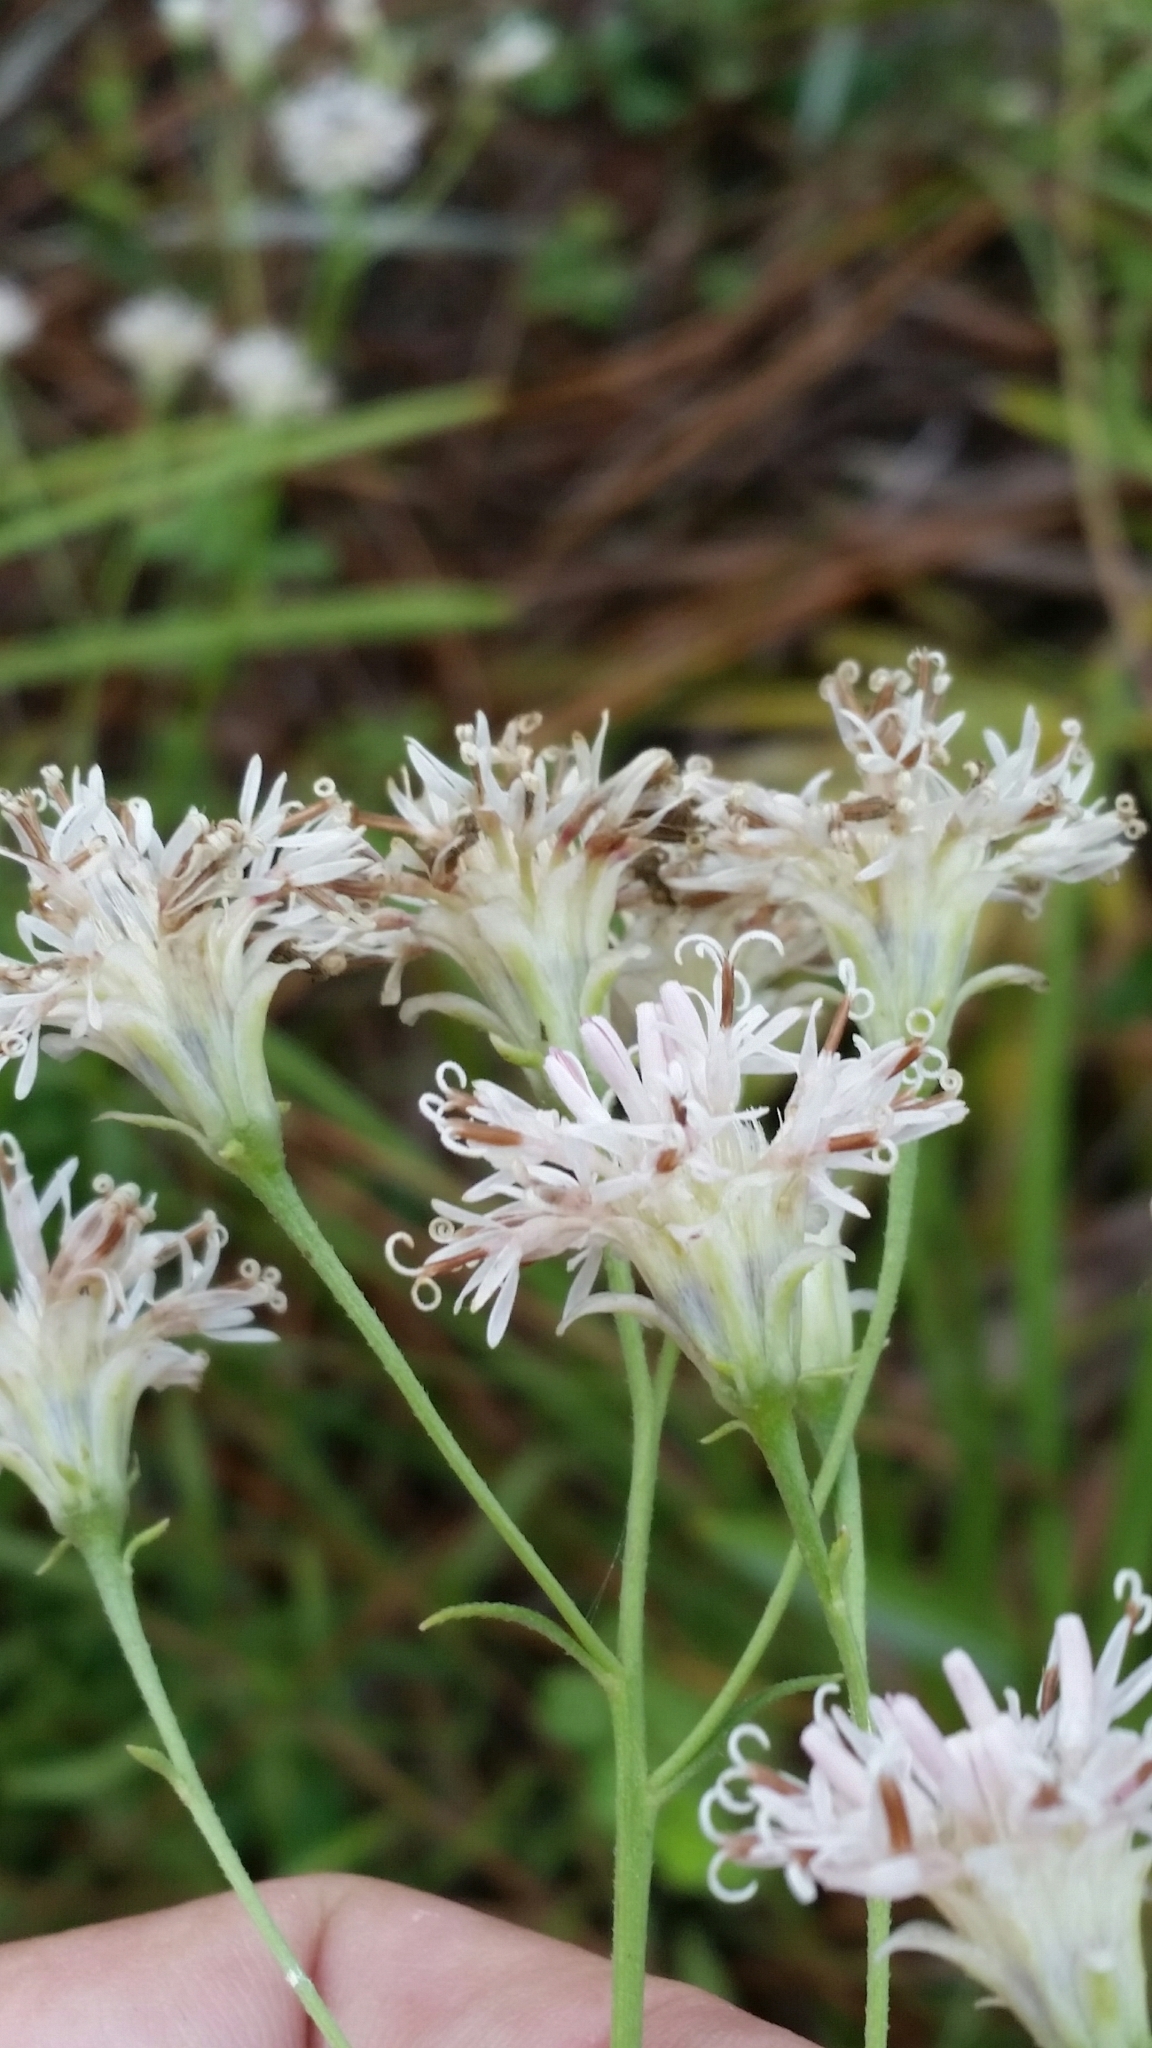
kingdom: Plantae
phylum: Tracheophyta
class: Magnoliopsida
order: Asterales
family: Asteraceae
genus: Palafoxia
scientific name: Palafoxia integrifolia
